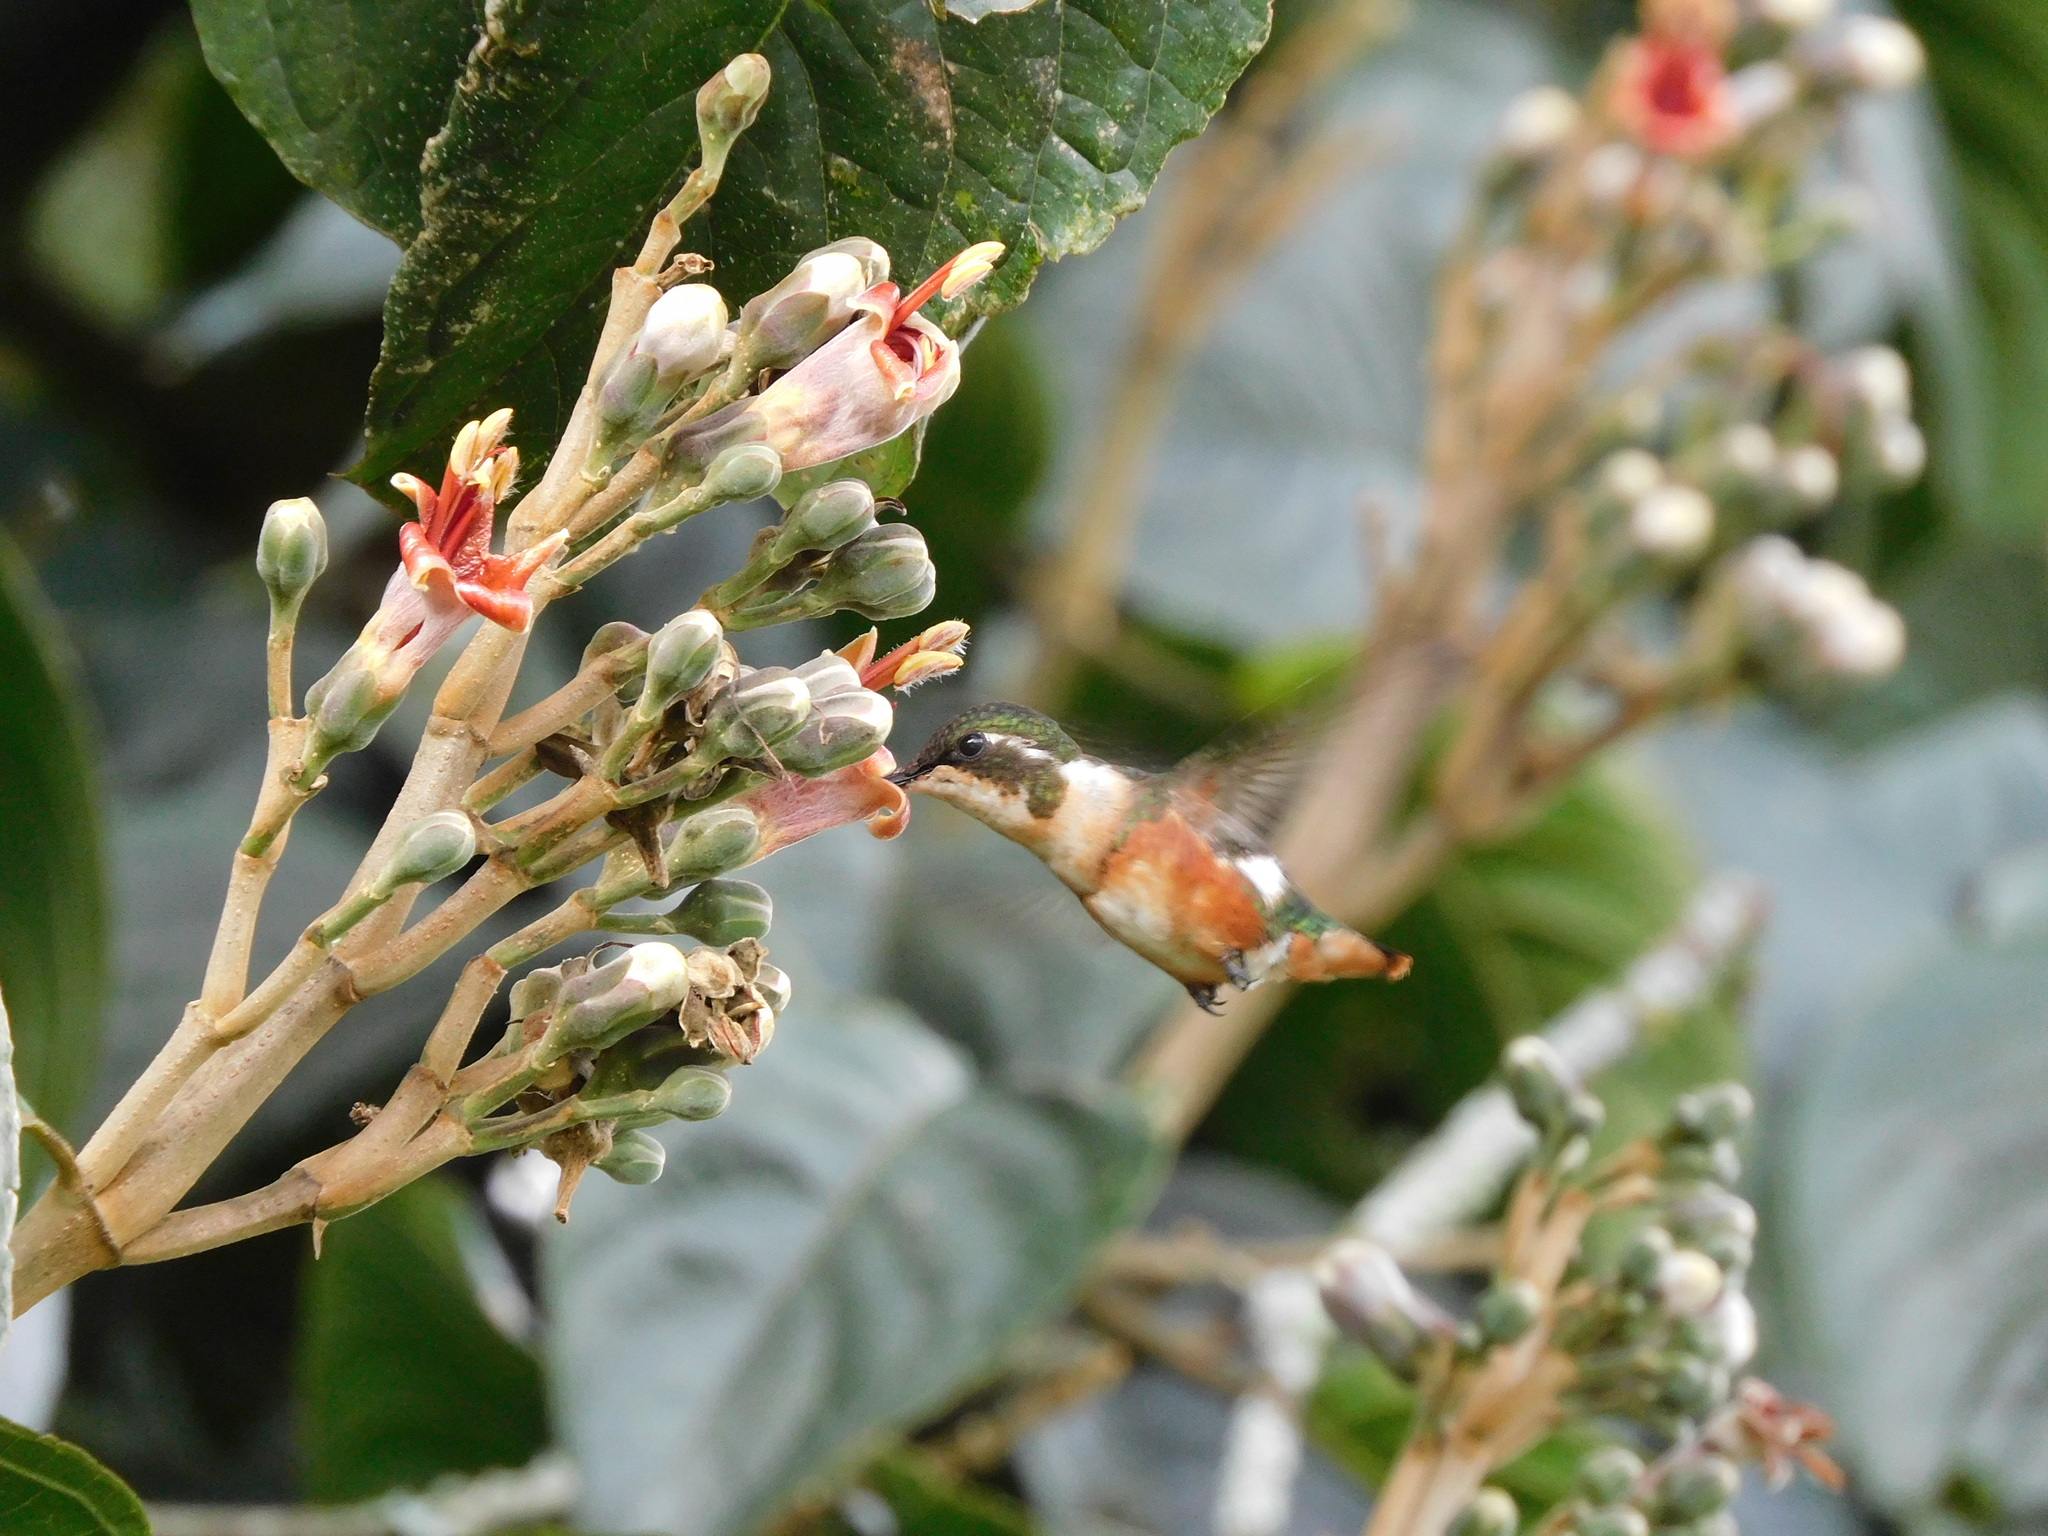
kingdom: Animalia
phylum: Chordata
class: Aves
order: Apodiformes
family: Trochilidae
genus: Chaetocercus
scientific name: Chaetocercus mulsant
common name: White-bellied woodstar
